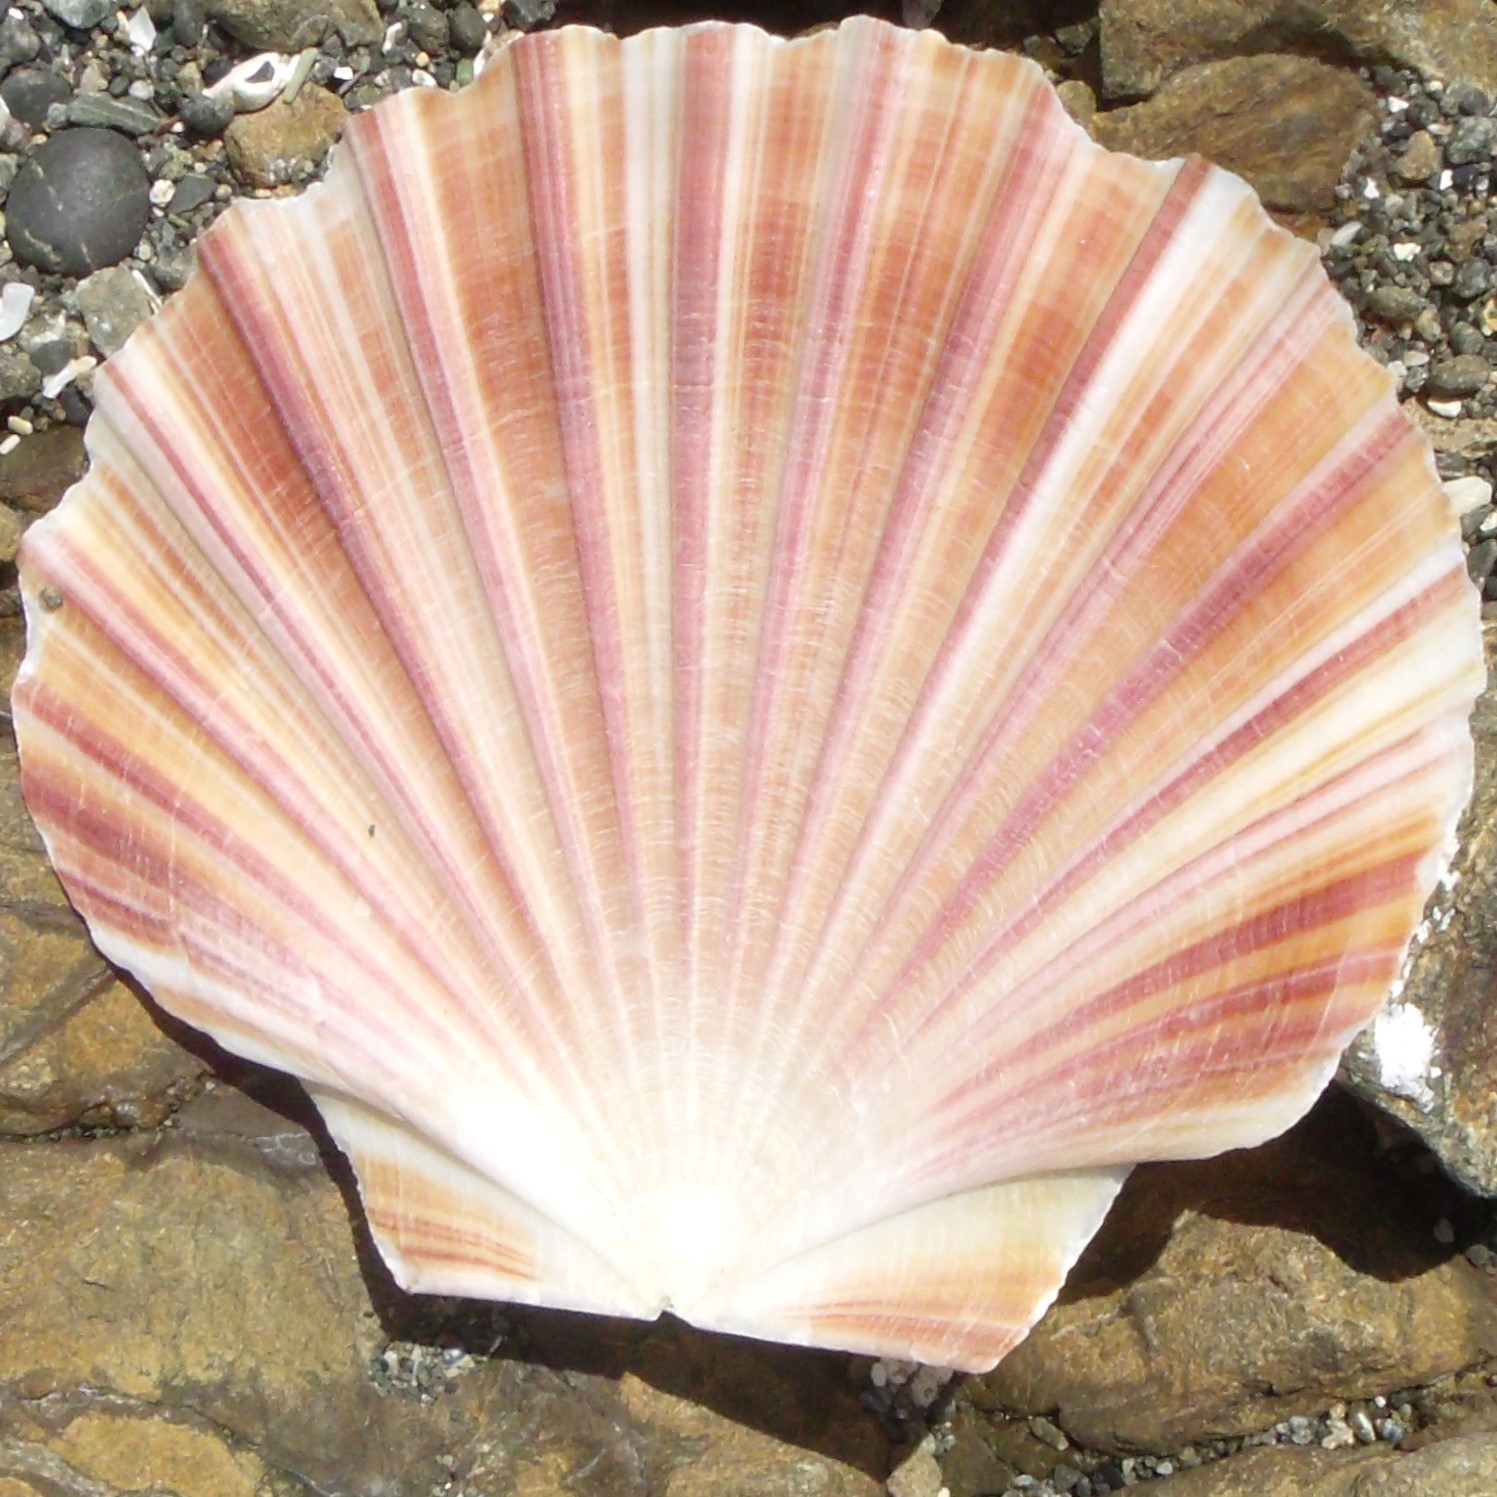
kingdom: Animalia
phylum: Mollusca
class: Bivalvia
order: Pectinida
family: Pectinidae
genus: Pecten
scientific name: Pecten novaezelandiae
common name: New zealand scallop
